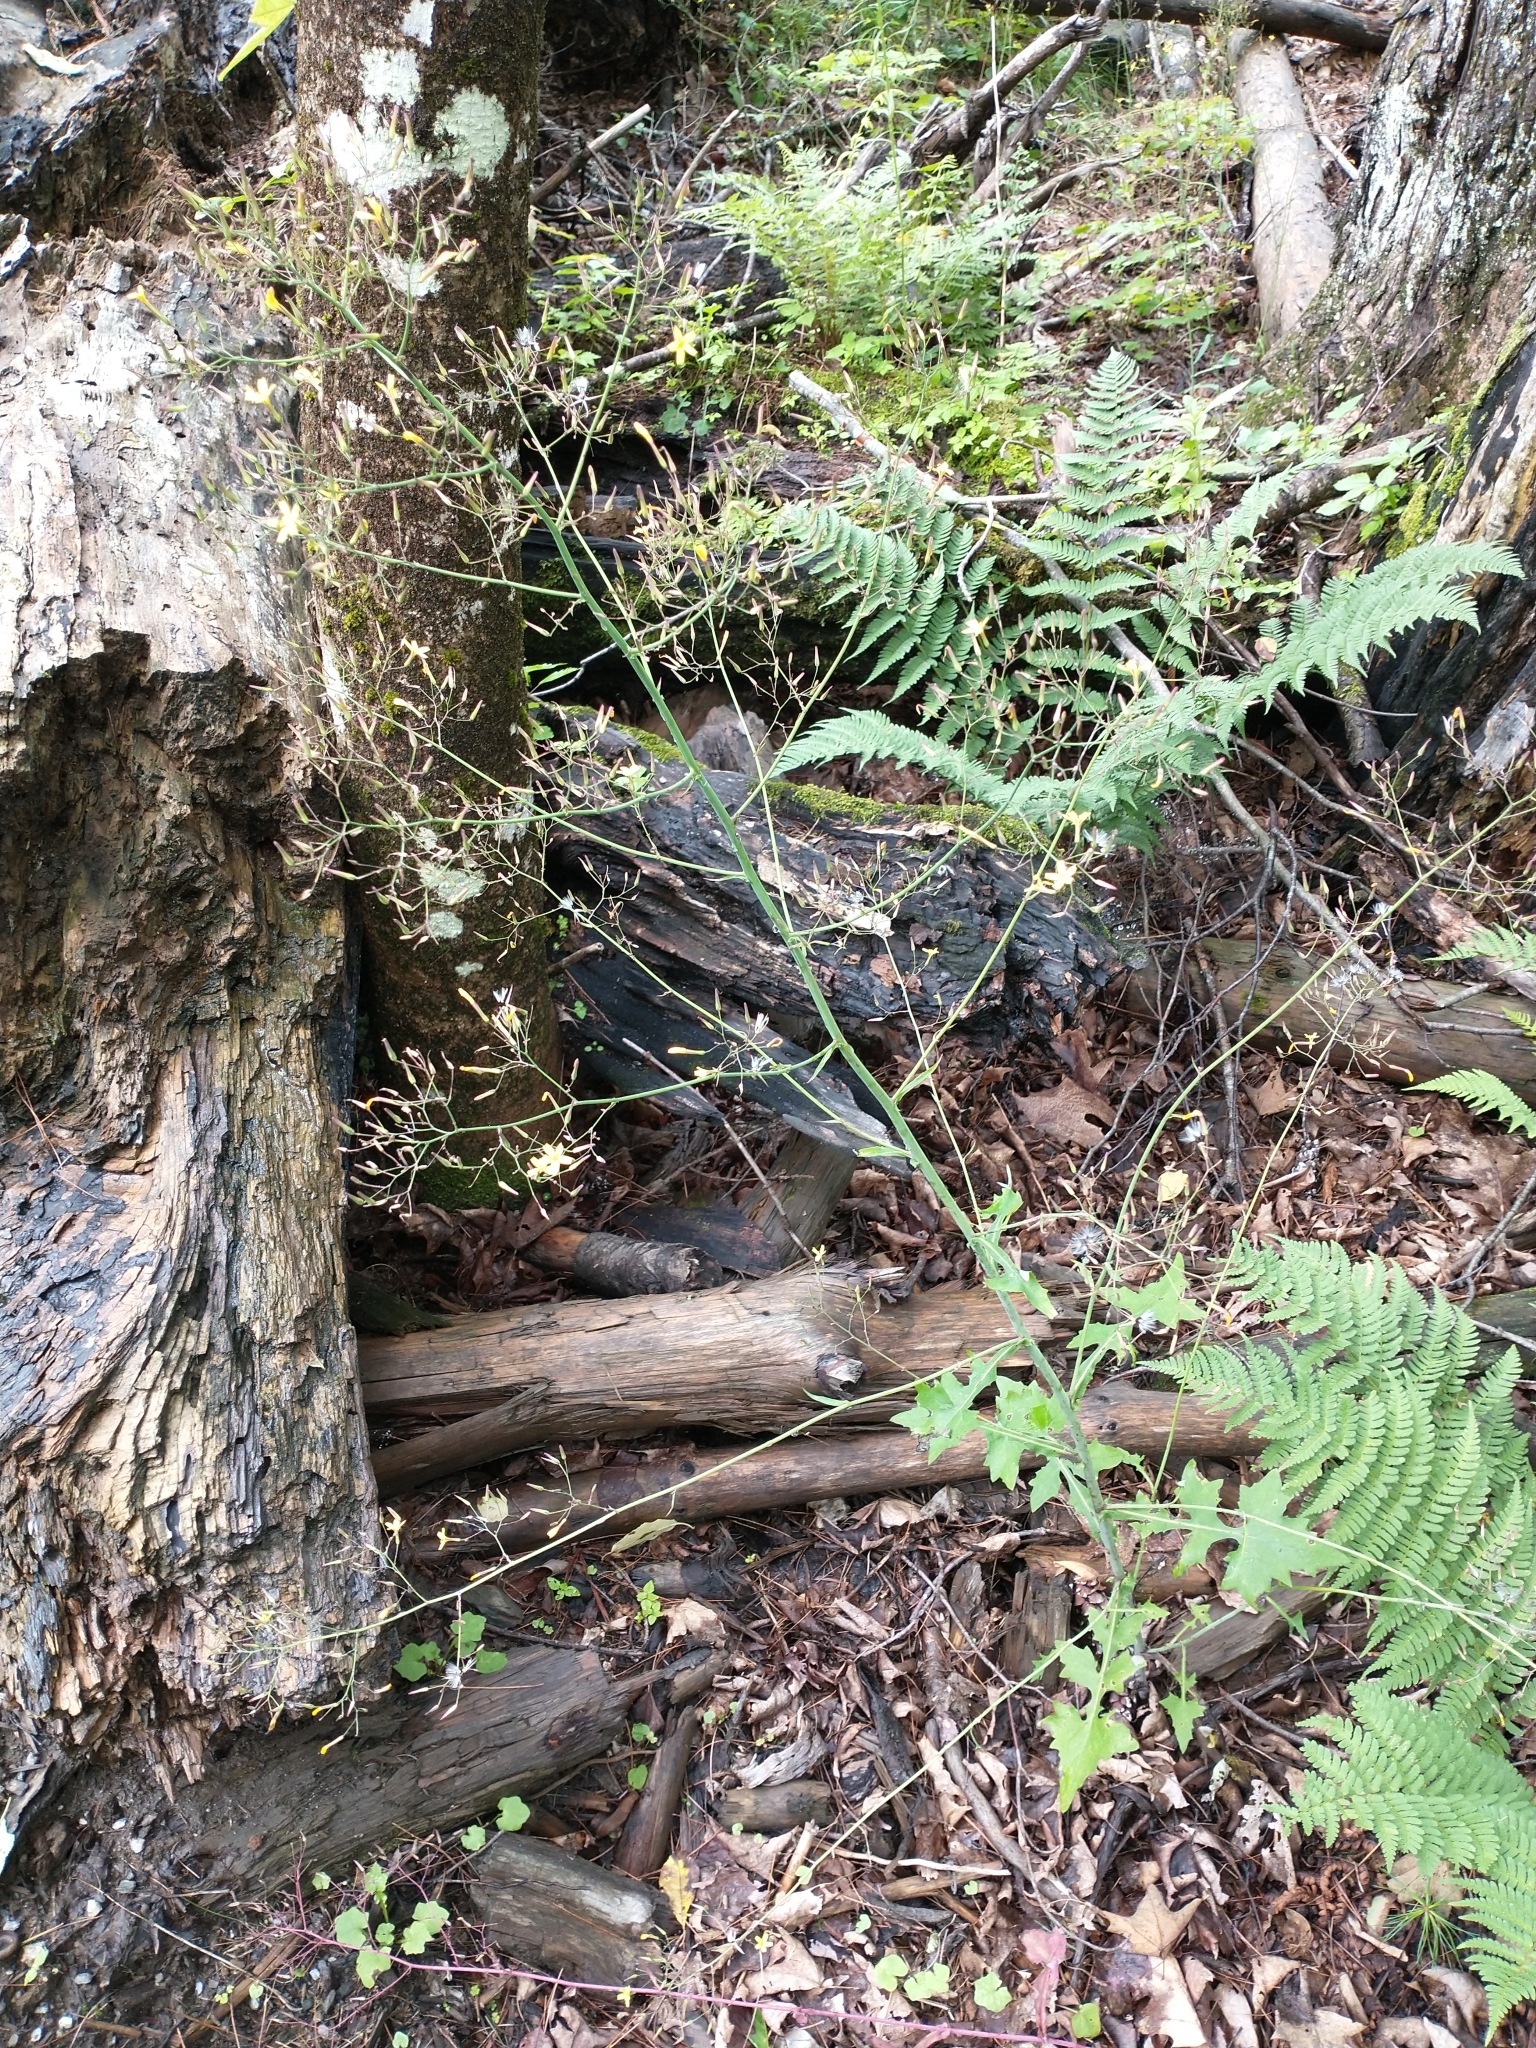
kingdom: Plantae
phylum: Tracheophyta
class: Magnoliopsida
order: Asterales
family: Asteraceae
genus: Mycelis
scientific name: Mycelis muralis
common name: Wall lettuce
